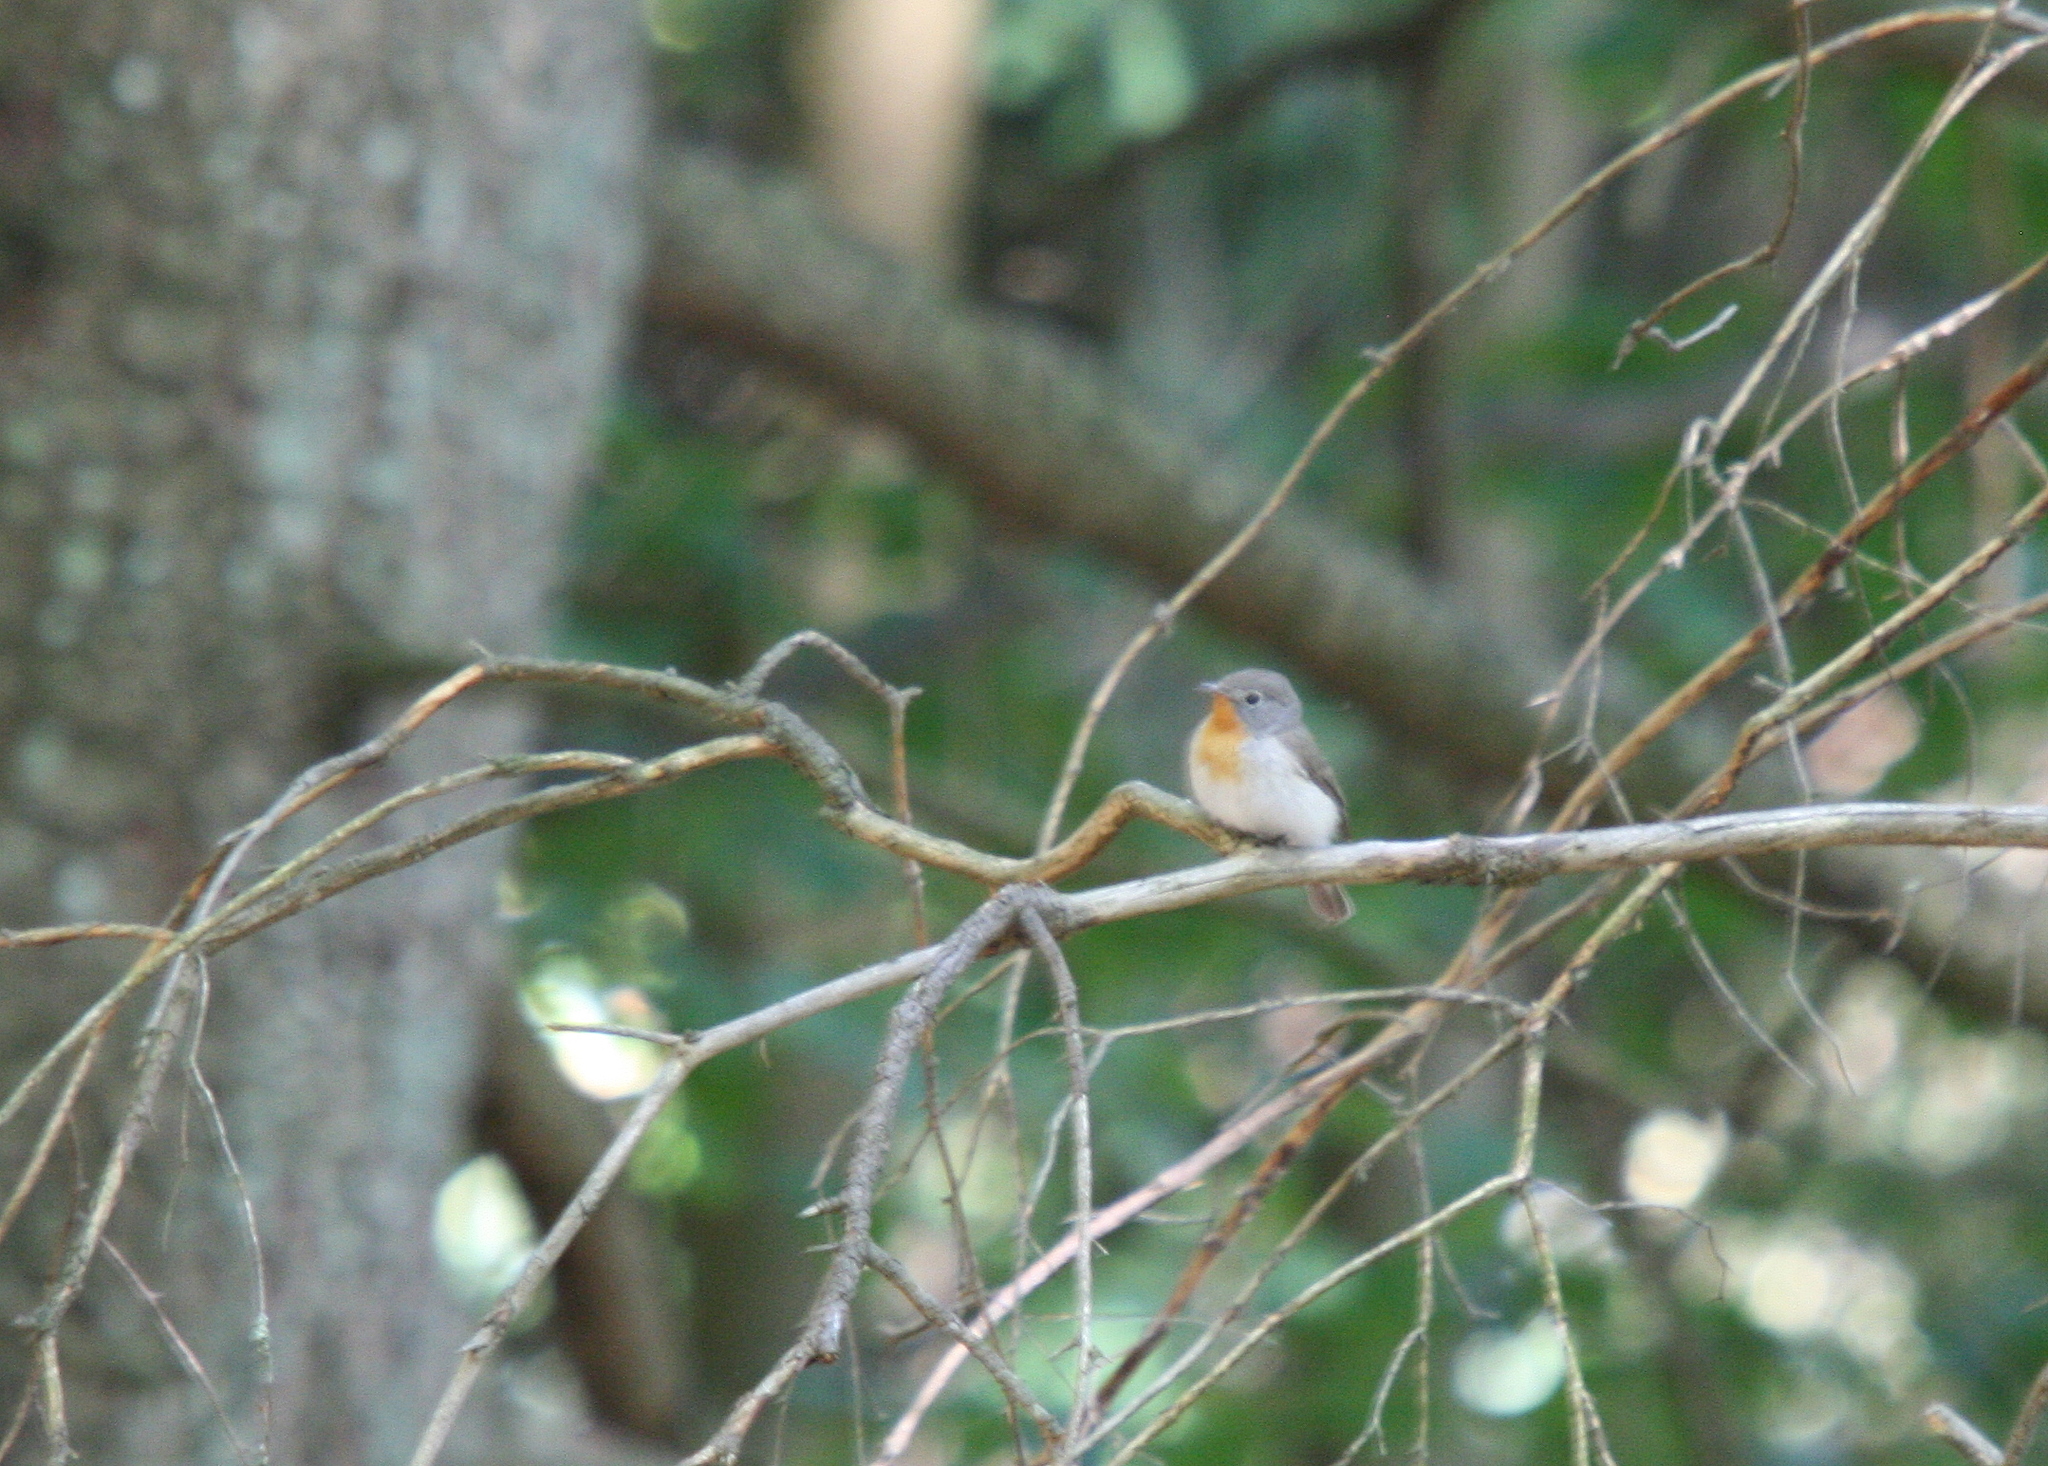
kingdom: Animalia
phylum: Chordata
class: Aves
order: Passeriformes
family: Muscicapidae
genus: Ficedula
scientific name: Ficedula parva
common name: Red-breasted flycatcher
